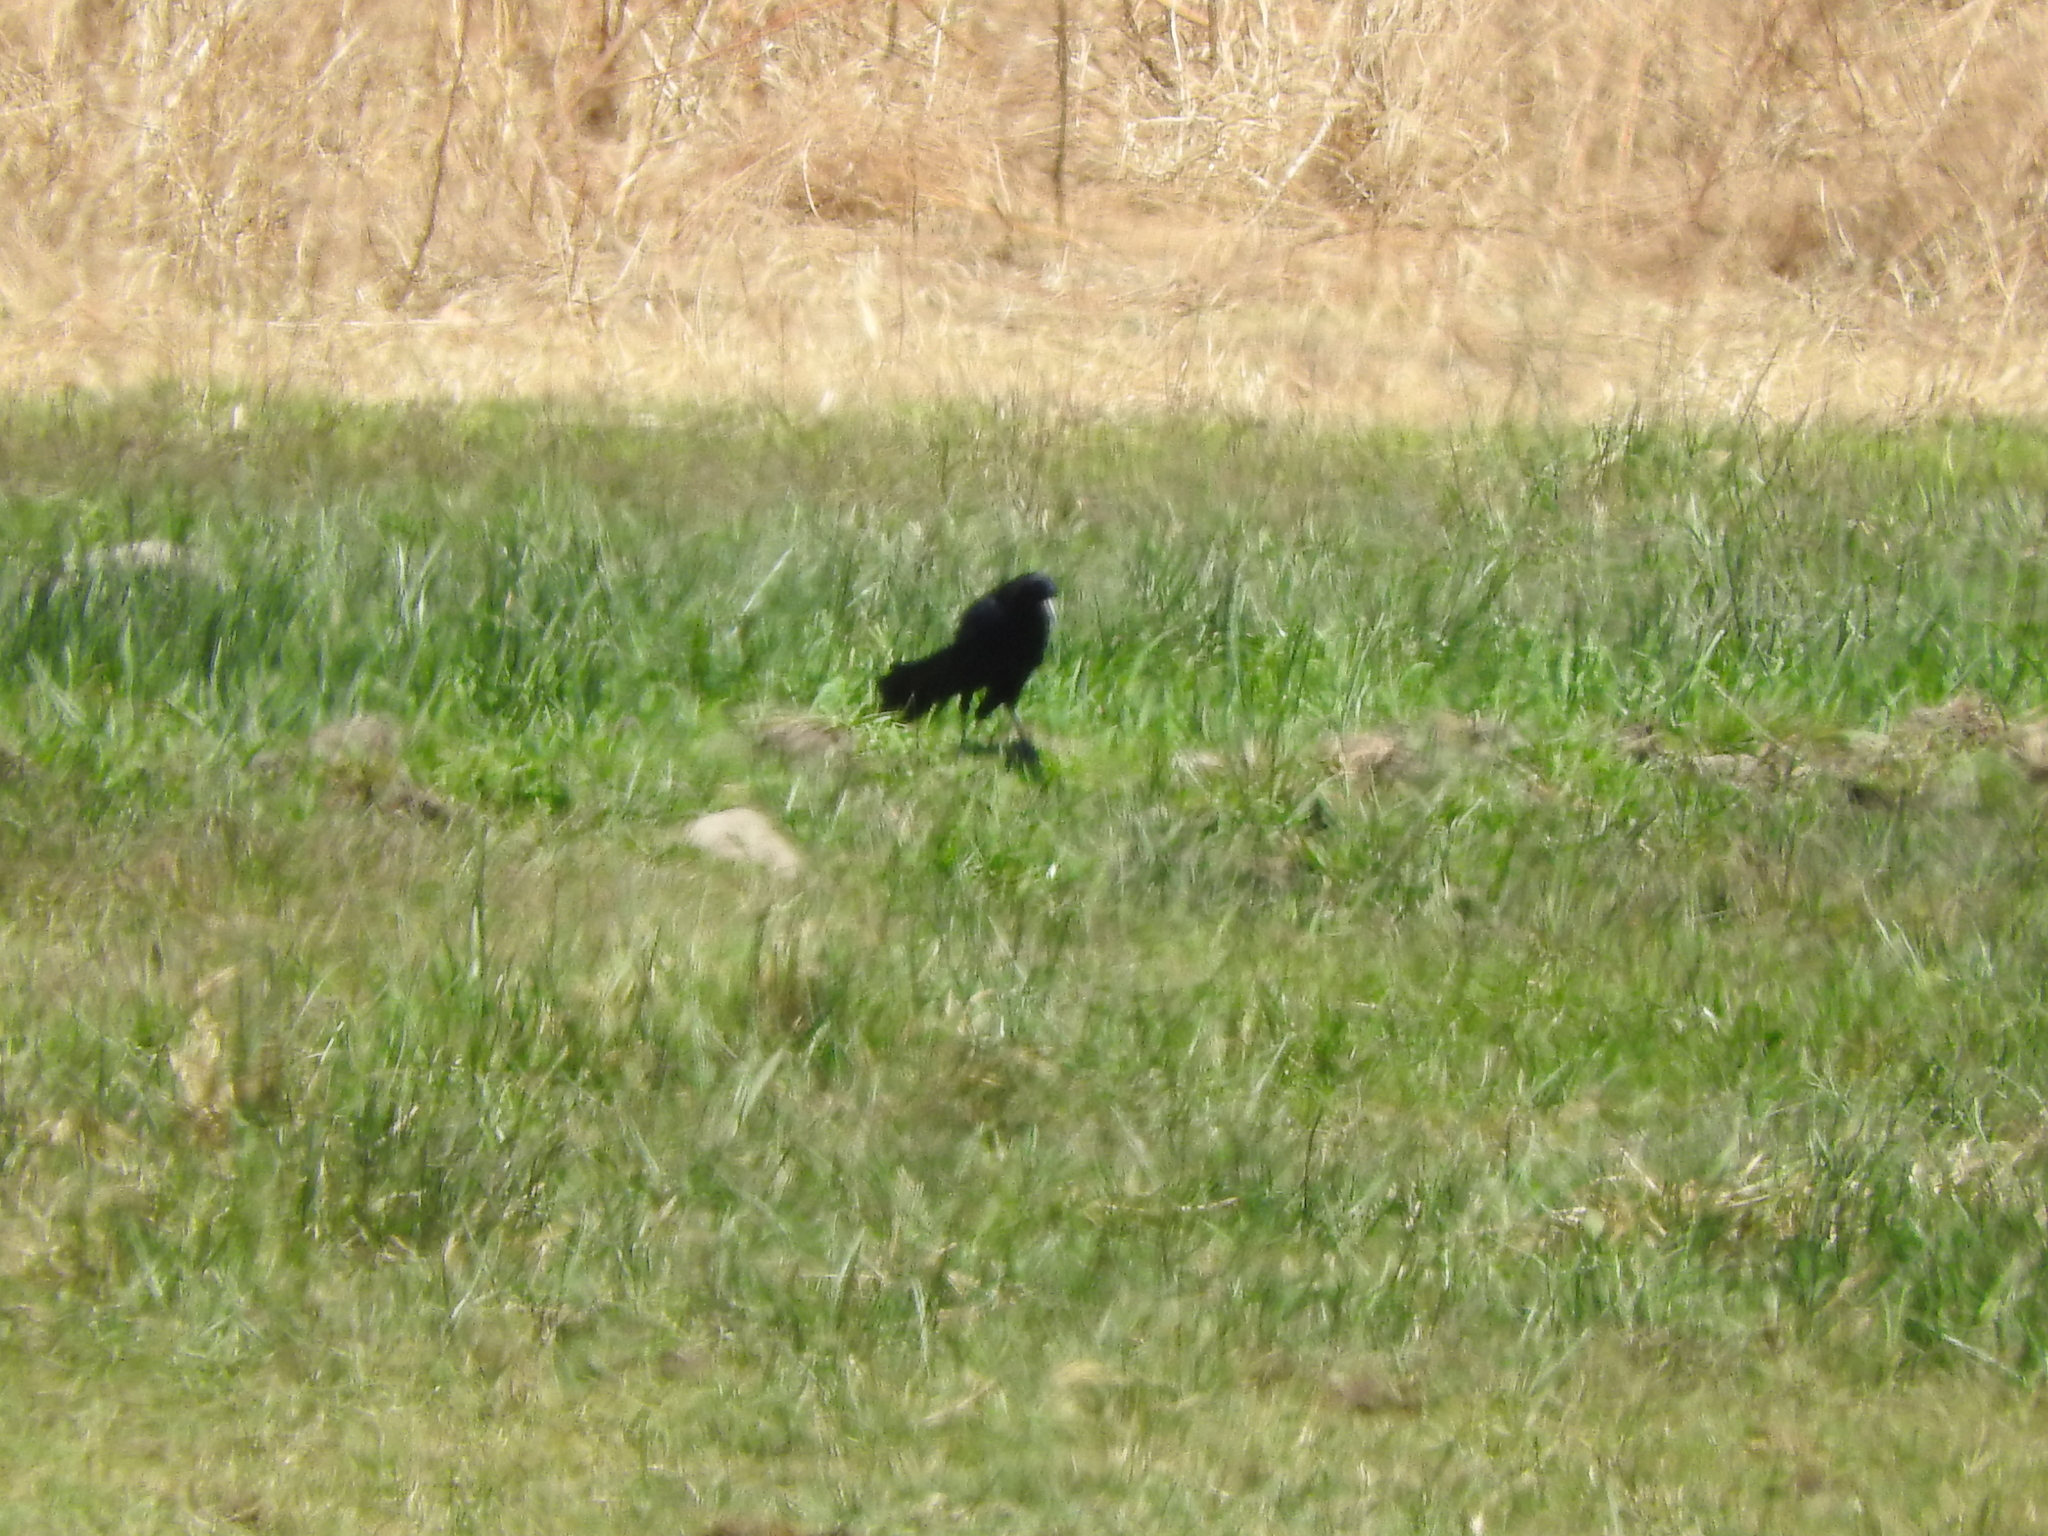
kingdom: Animalia
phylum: Chordata
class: Aves
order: Passeriformes
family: Icteridae
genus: Quiscalus
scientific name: Quiscalus mexicanus
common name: Great-tailed grackle
